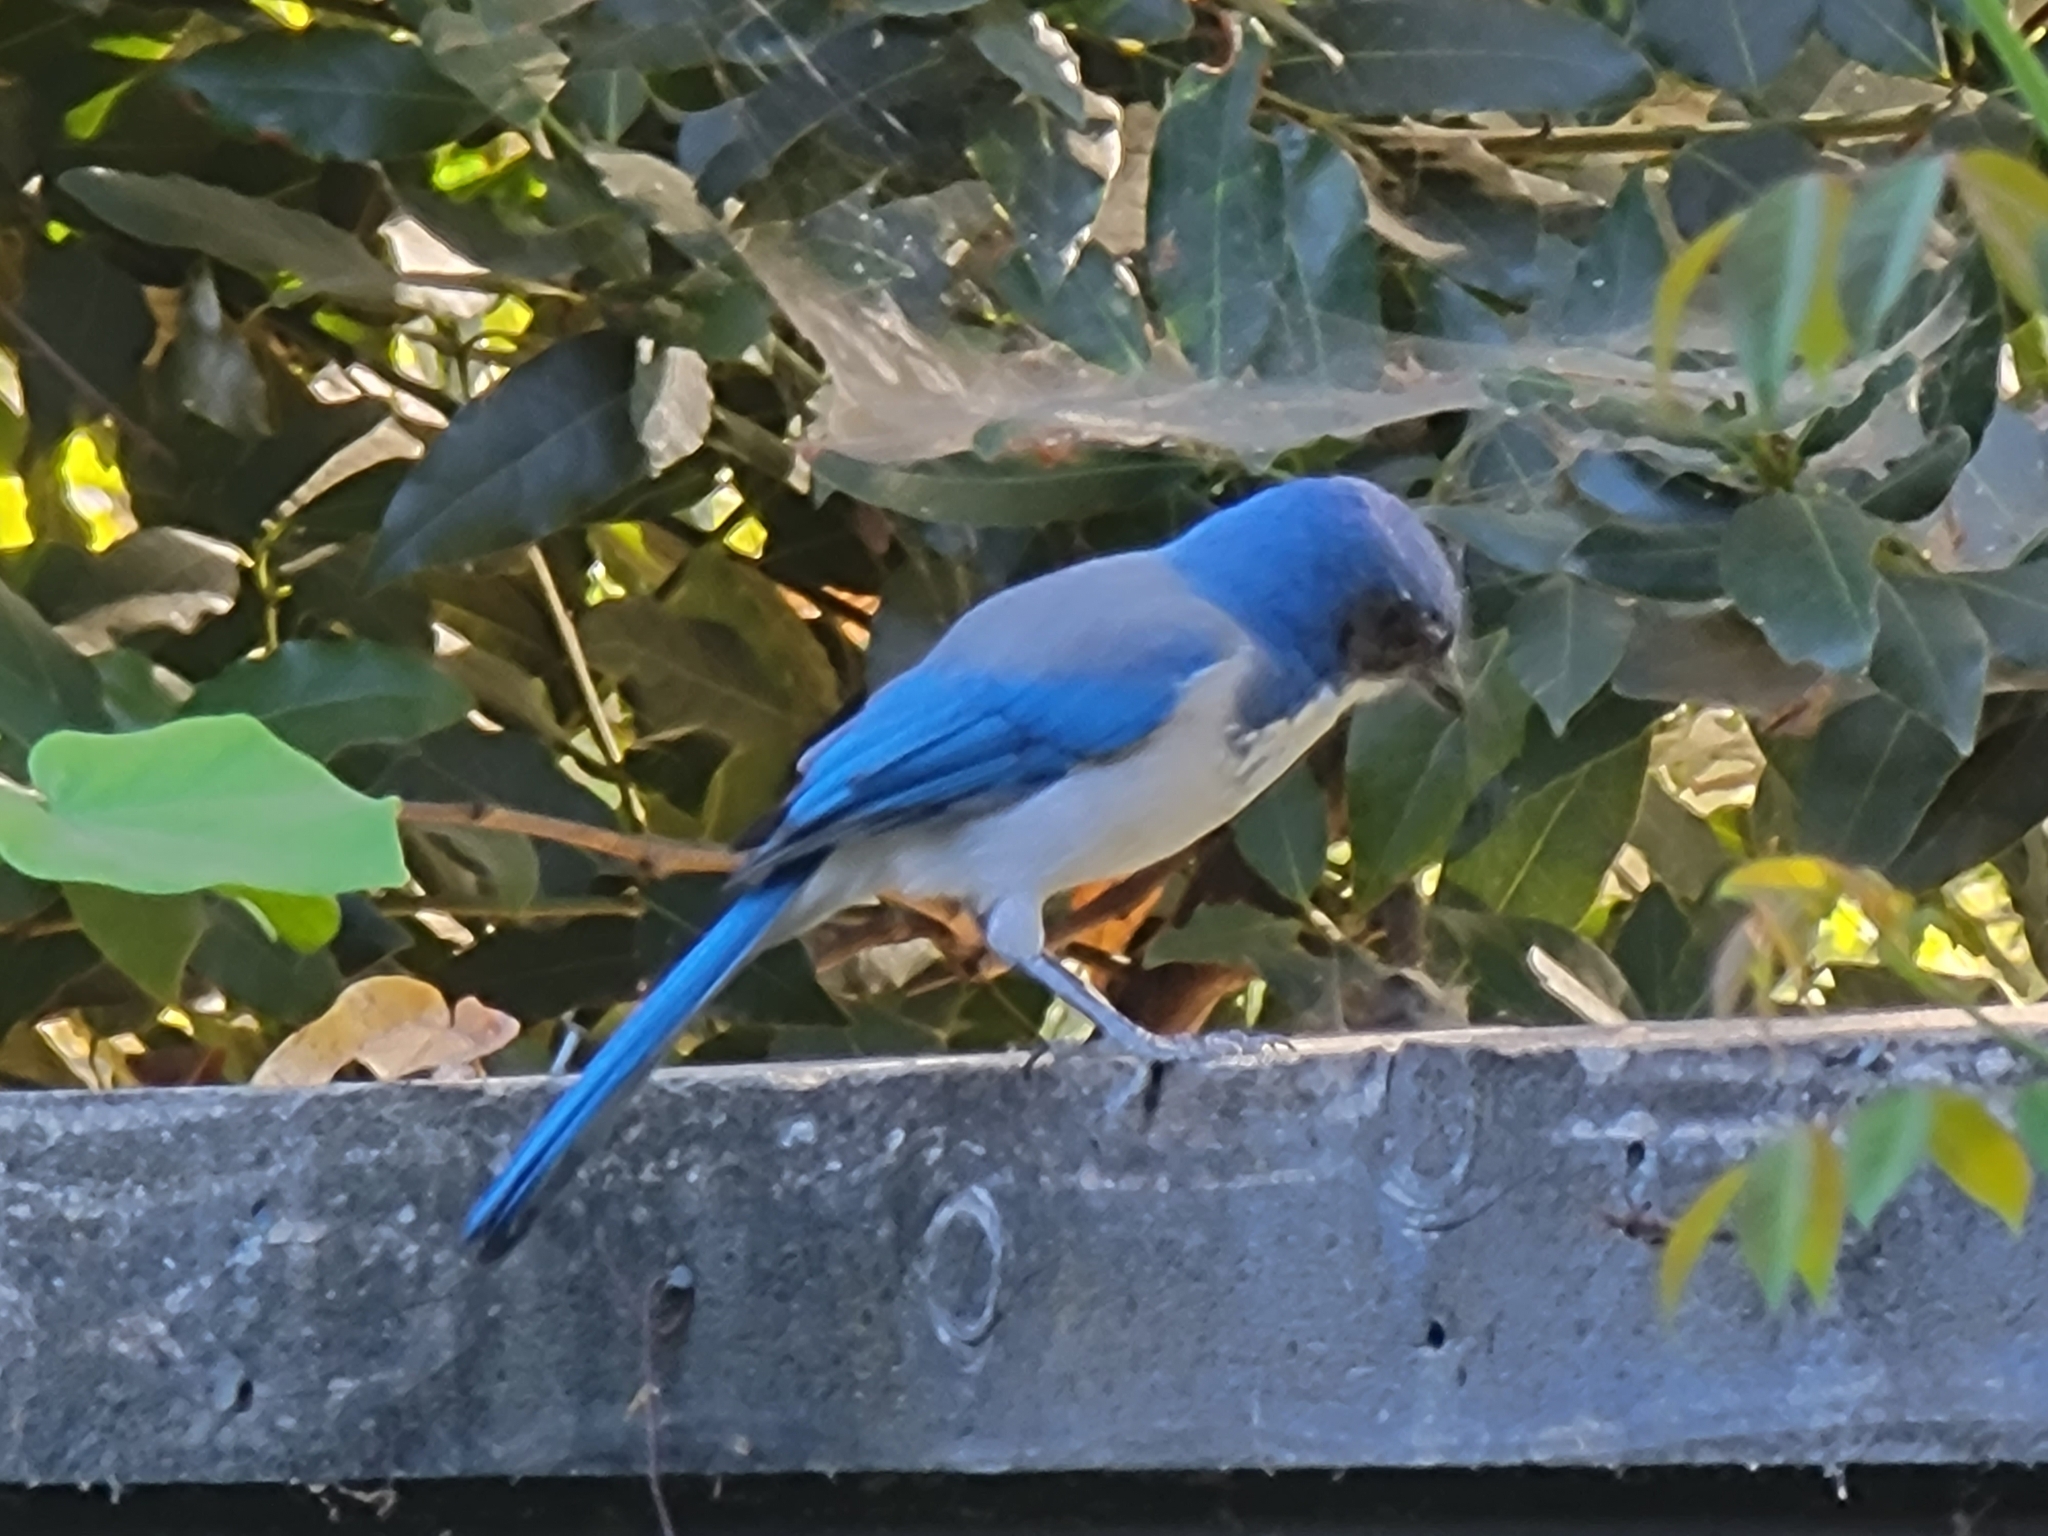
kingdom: Animalia
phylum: Chordata
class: Aves
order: Passeriformes
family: Corvidae
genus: Aphelocoma
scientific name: Aphelocoma californica
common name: California scrub-jay
